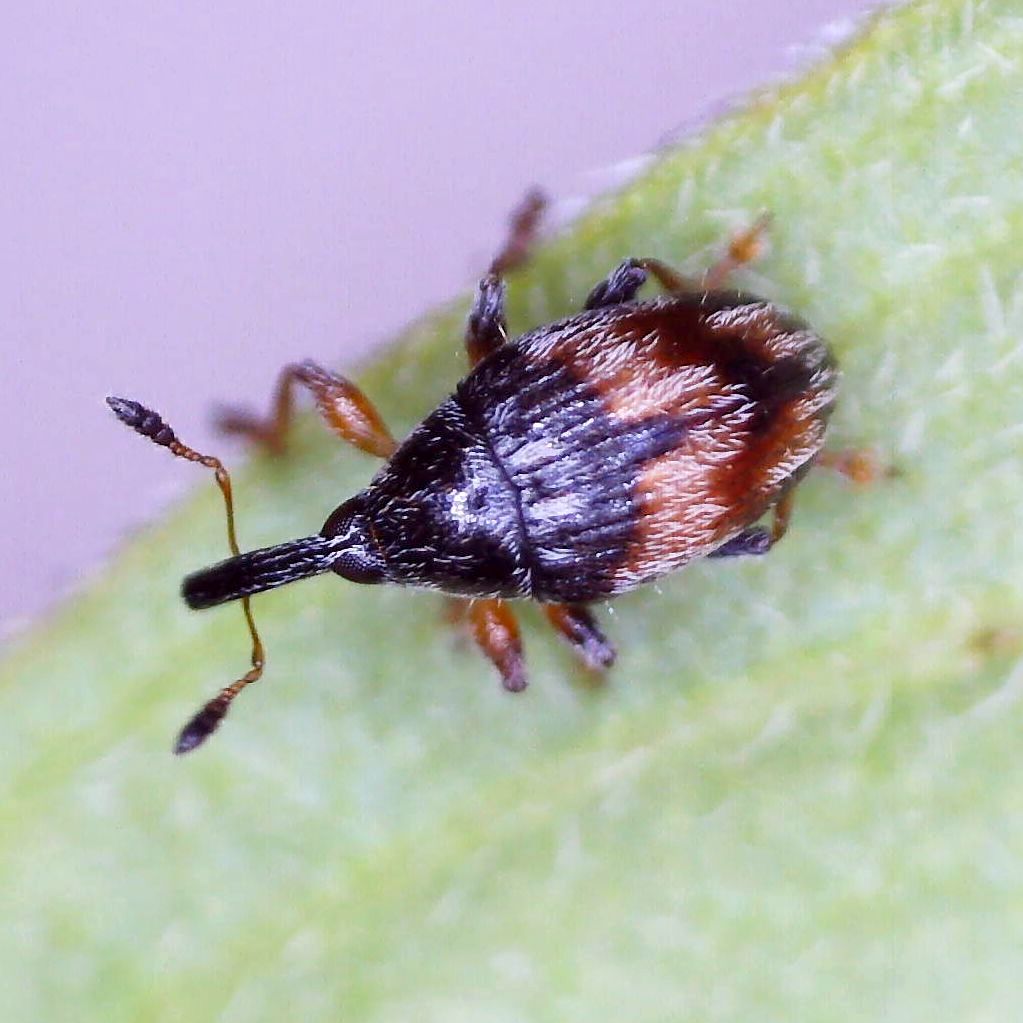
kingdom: Animalia
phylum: Arthropoda
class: Insecta
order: Coleoptera
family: Brentidae
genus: Nanophyes
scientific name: Nanophyes marmoratus
